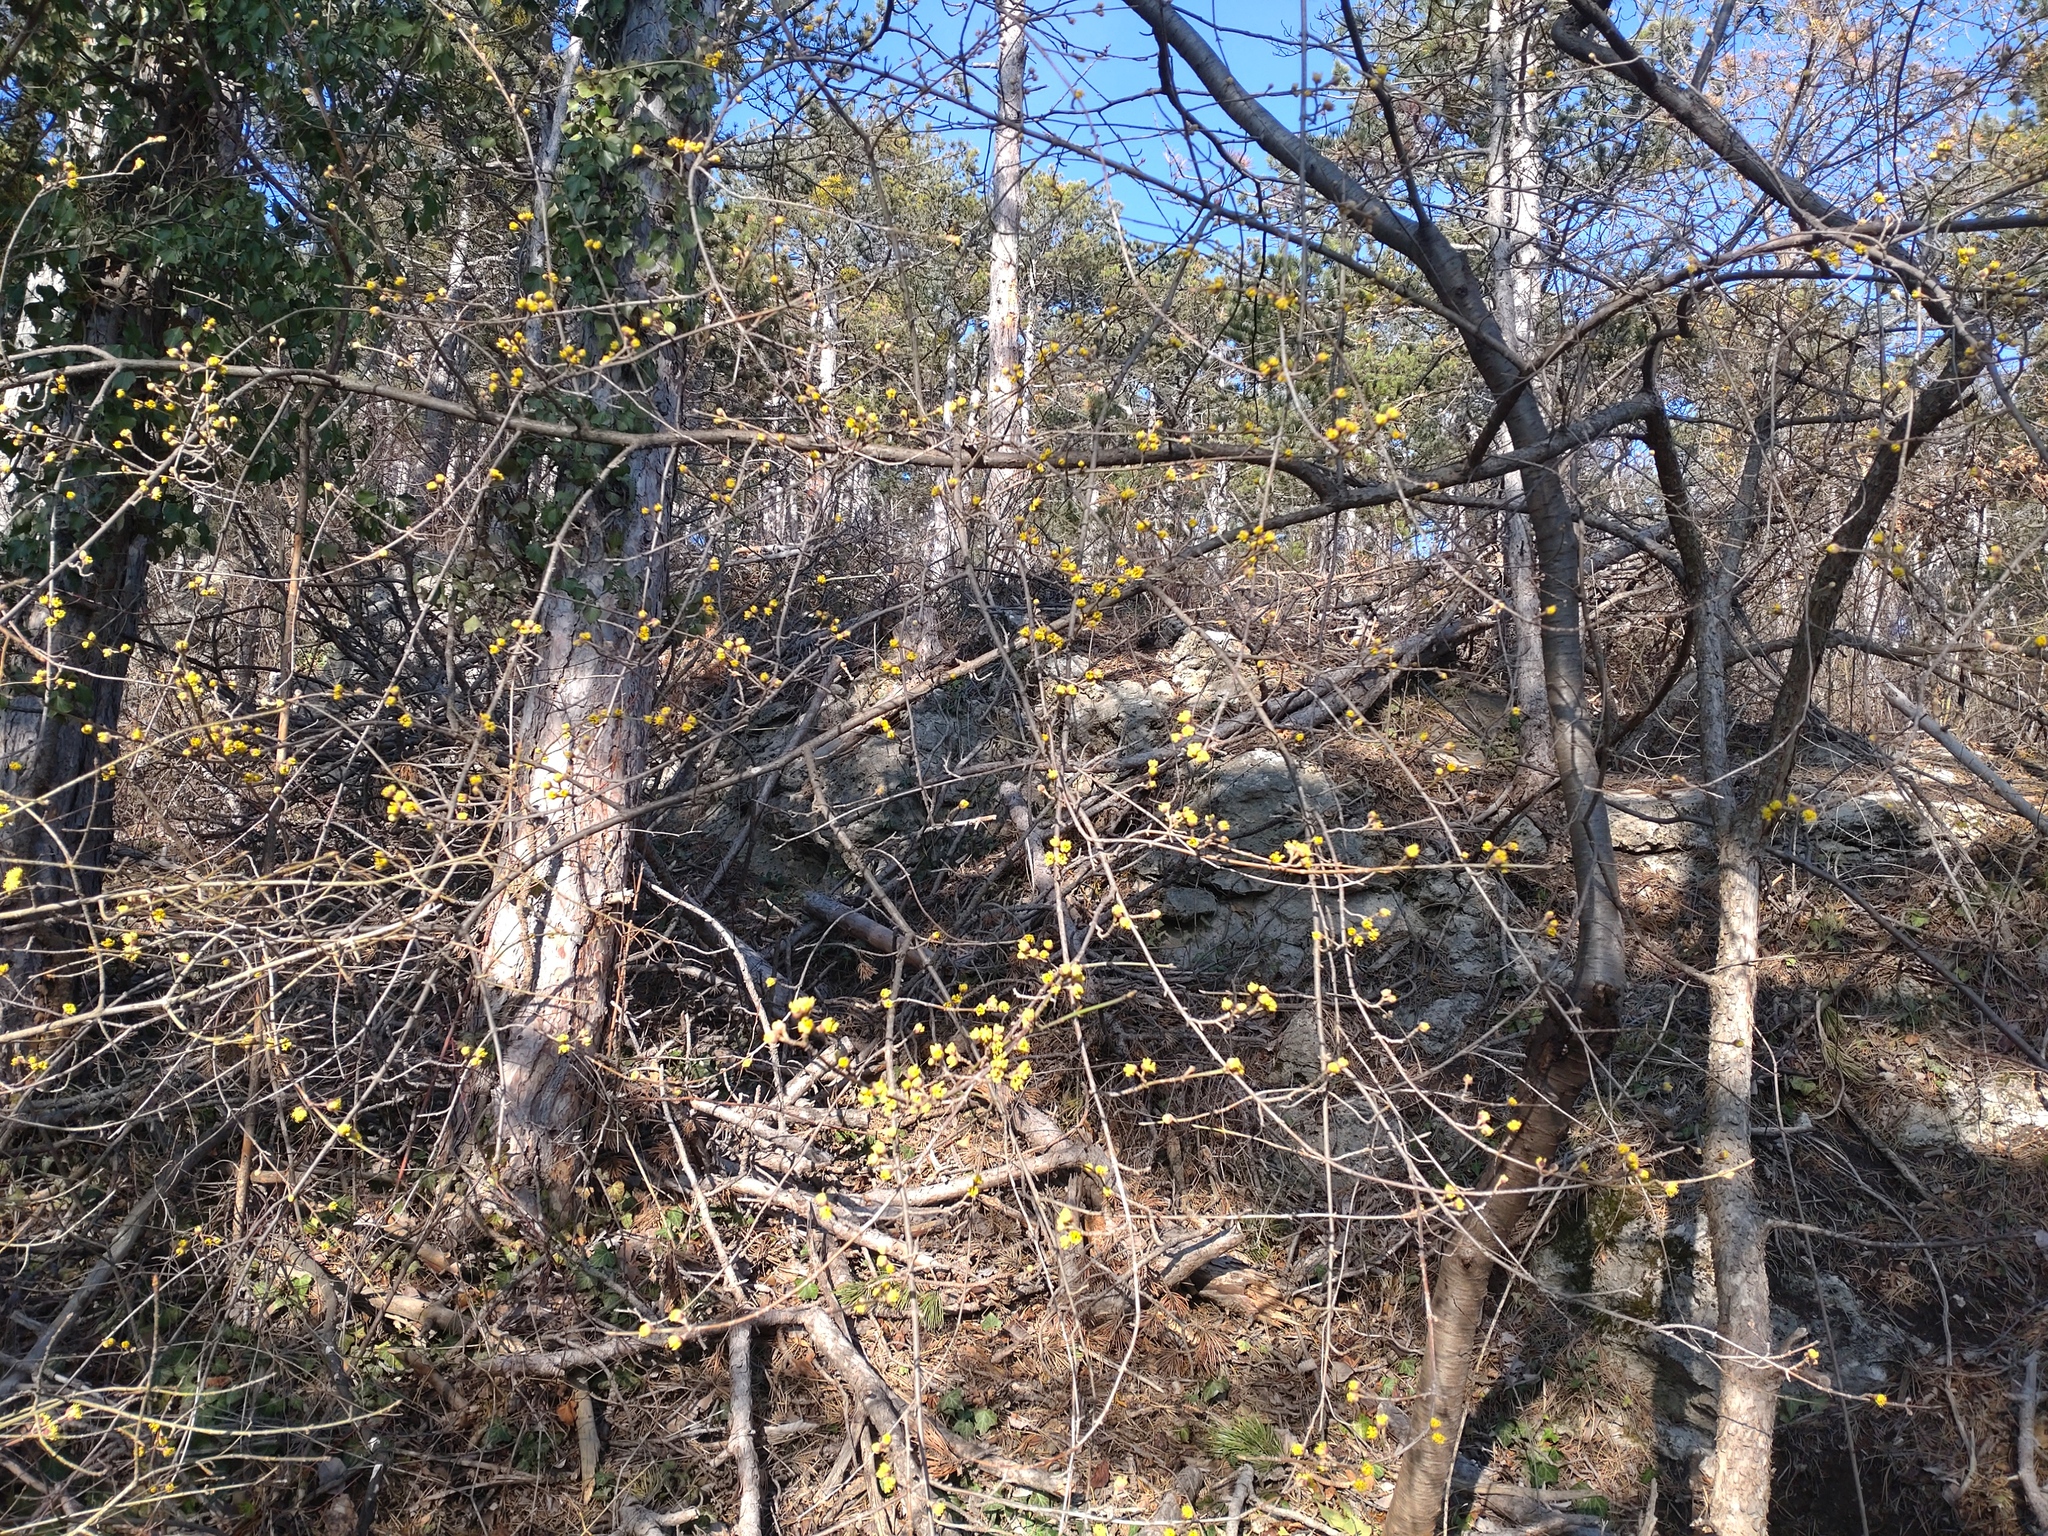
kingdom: Plantae
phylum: Tracheophyta
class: Magnoliopsida
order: Cornales
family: Cornaceae
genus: Cornus
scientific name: Cornus mas
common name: Cornelian-cherry
